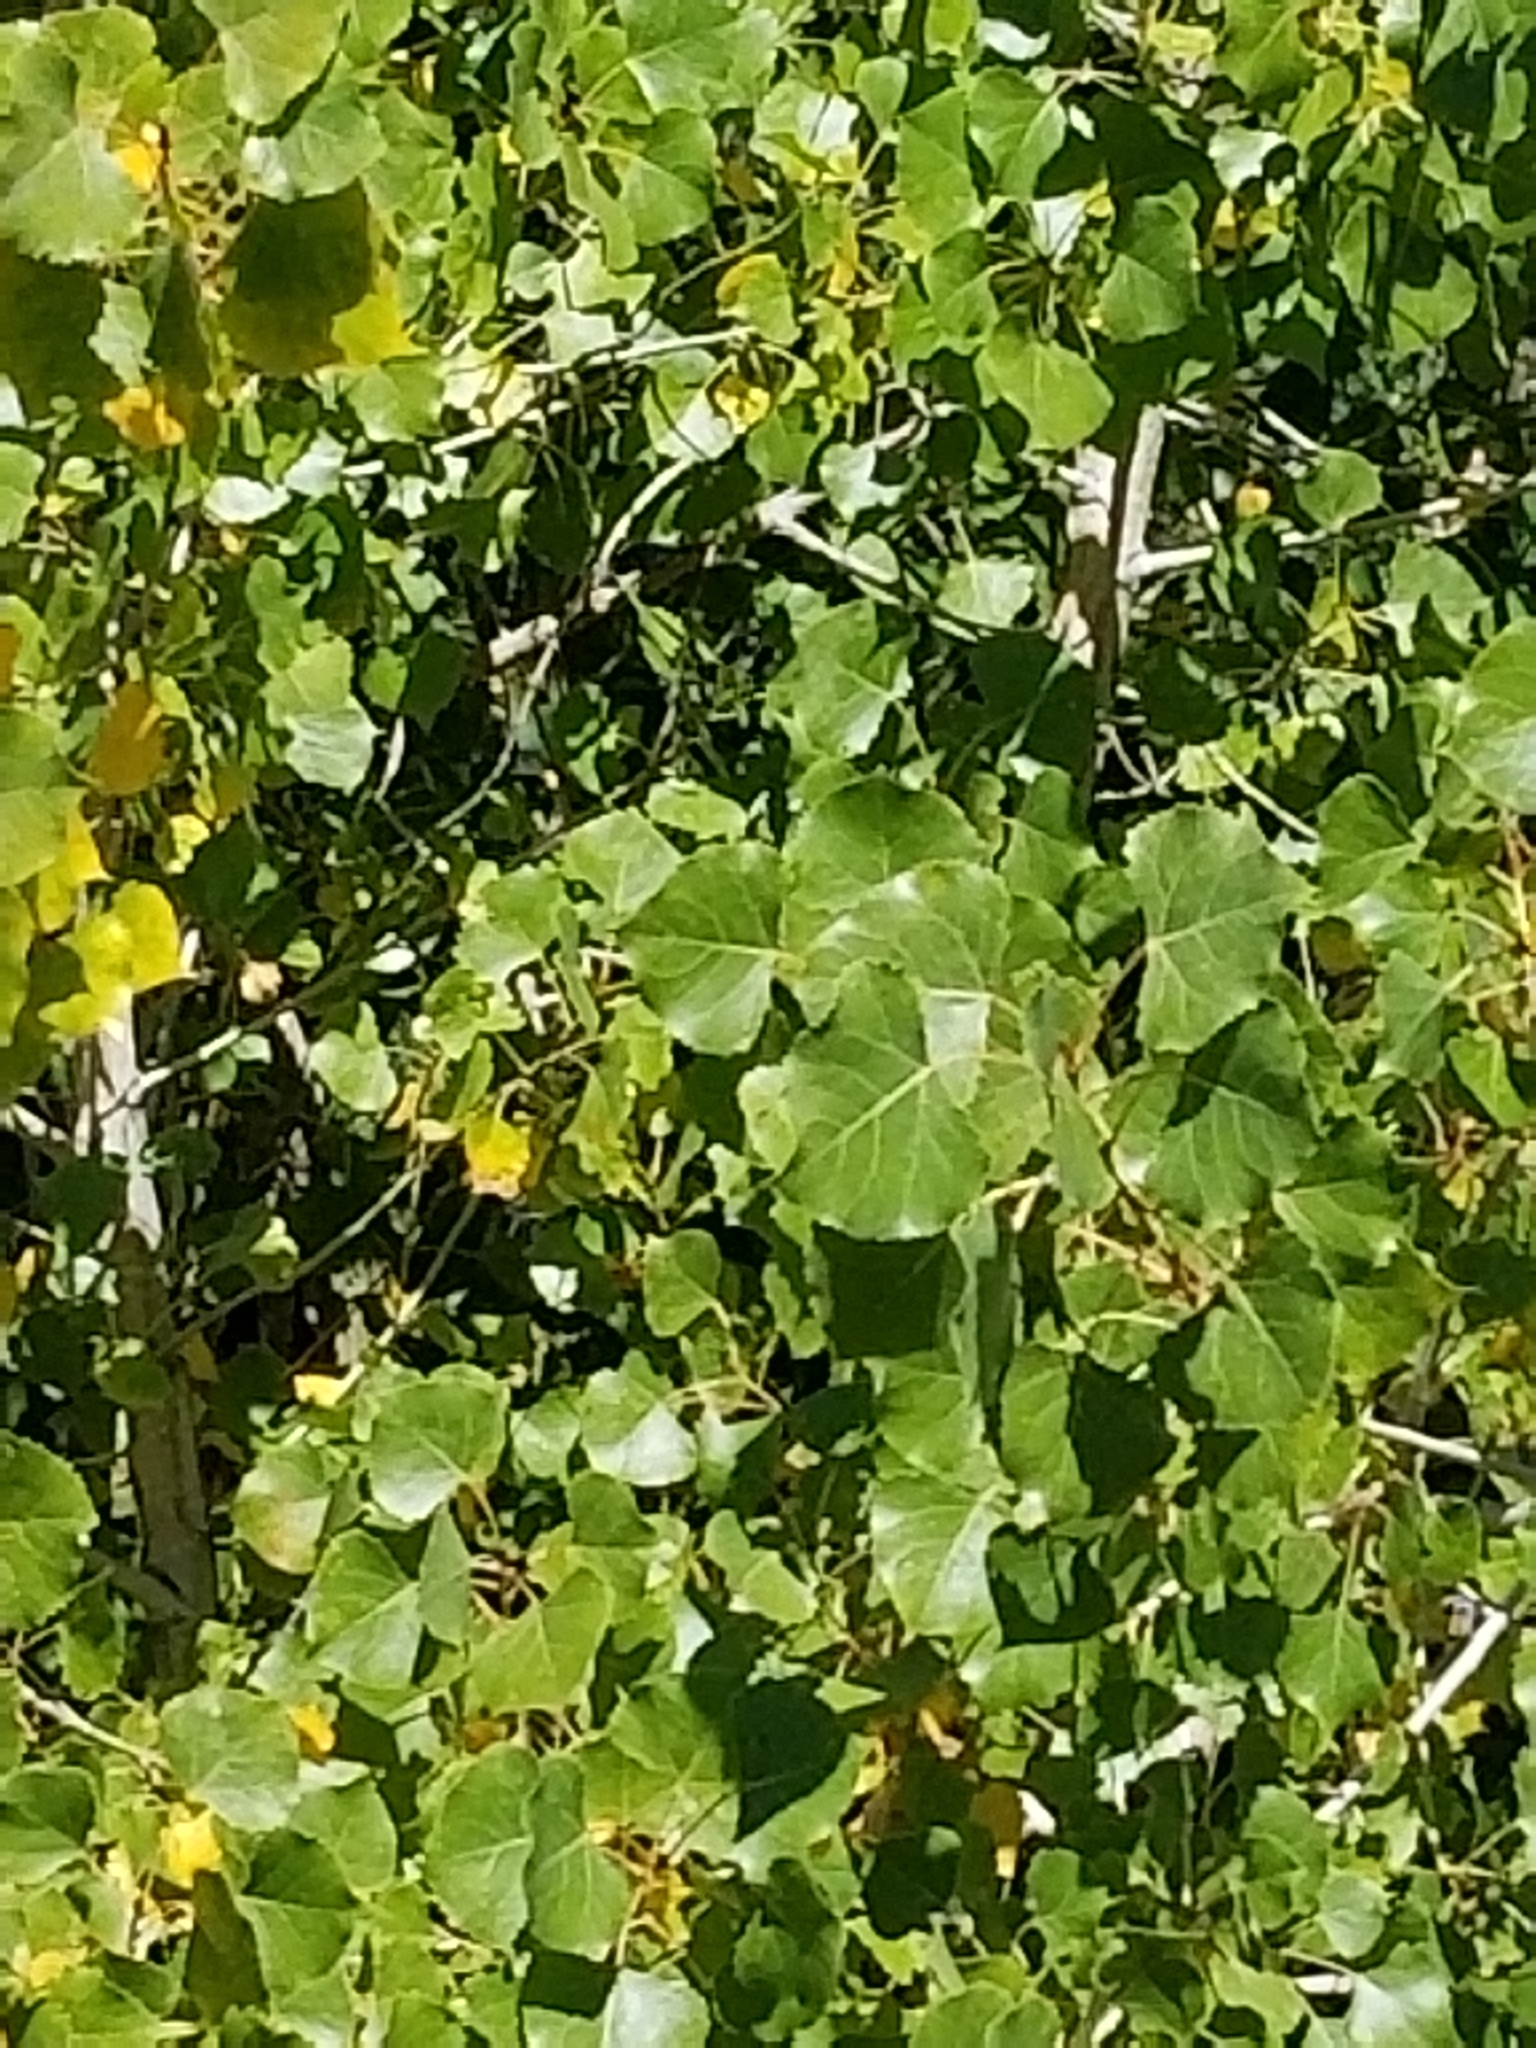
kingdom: Plantae
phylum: Tracheophyta
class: Magnoliopsida
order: Malpighiales
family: Salicaceae
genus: Populus
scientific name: Populus deltoides
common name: Eastern cottonwood
